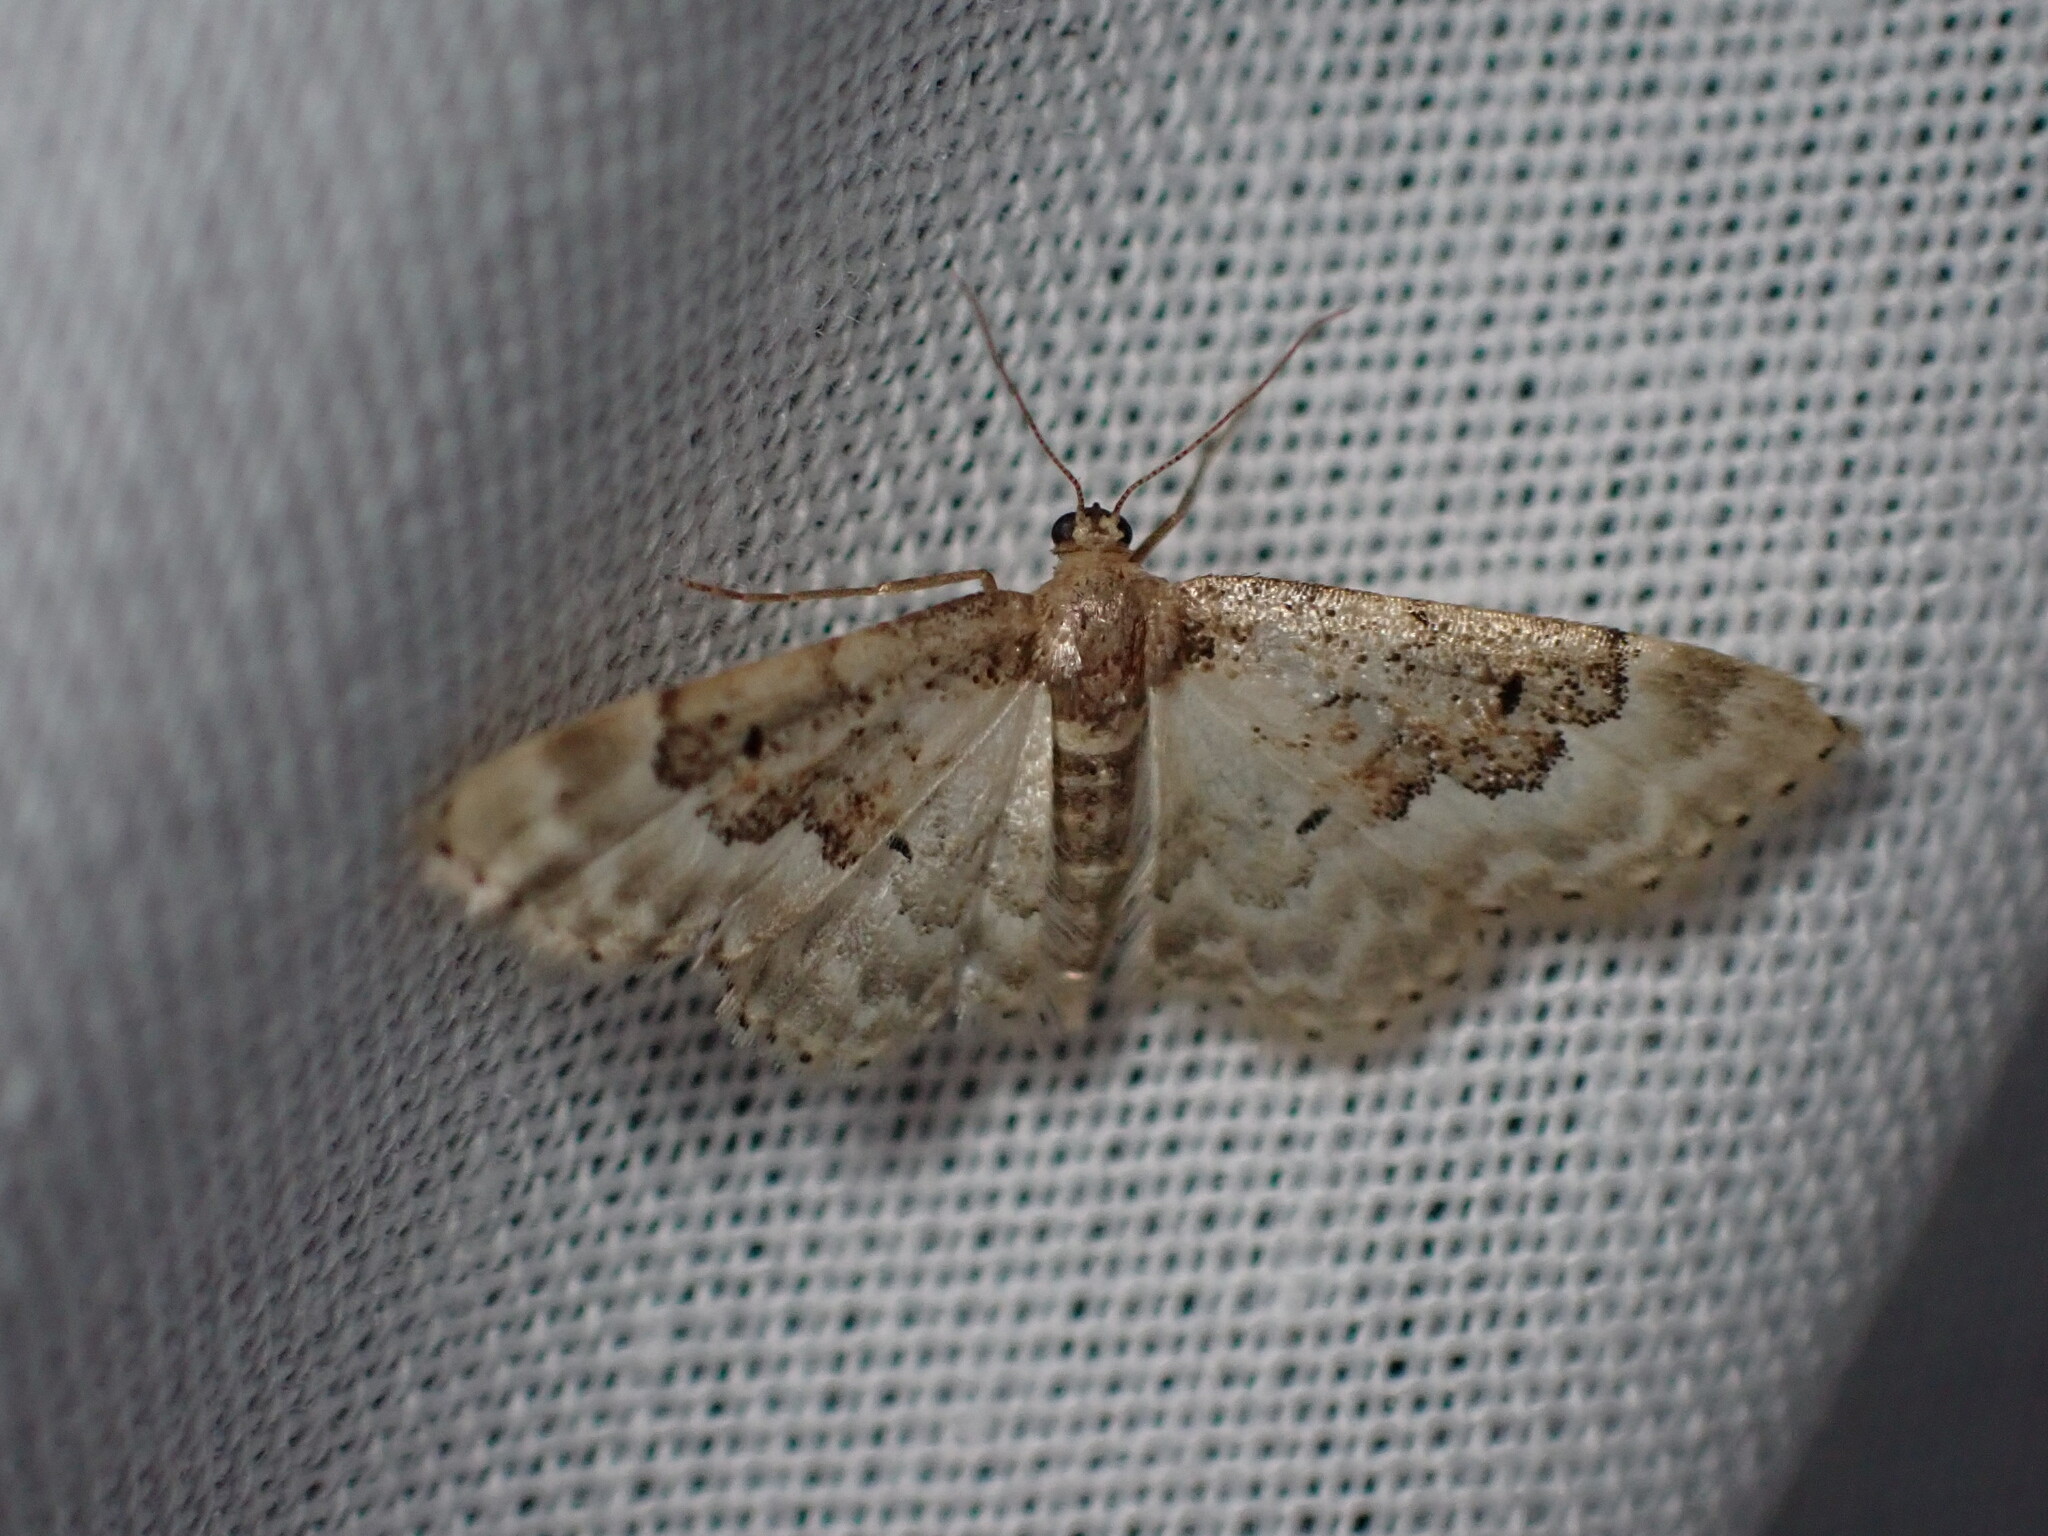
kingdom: Animalia
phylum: Arthropoda
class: Insecta
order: Lepidoptera
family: Geometridae
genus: Idaea
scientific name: Idaea rusticata
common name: Least carpet
